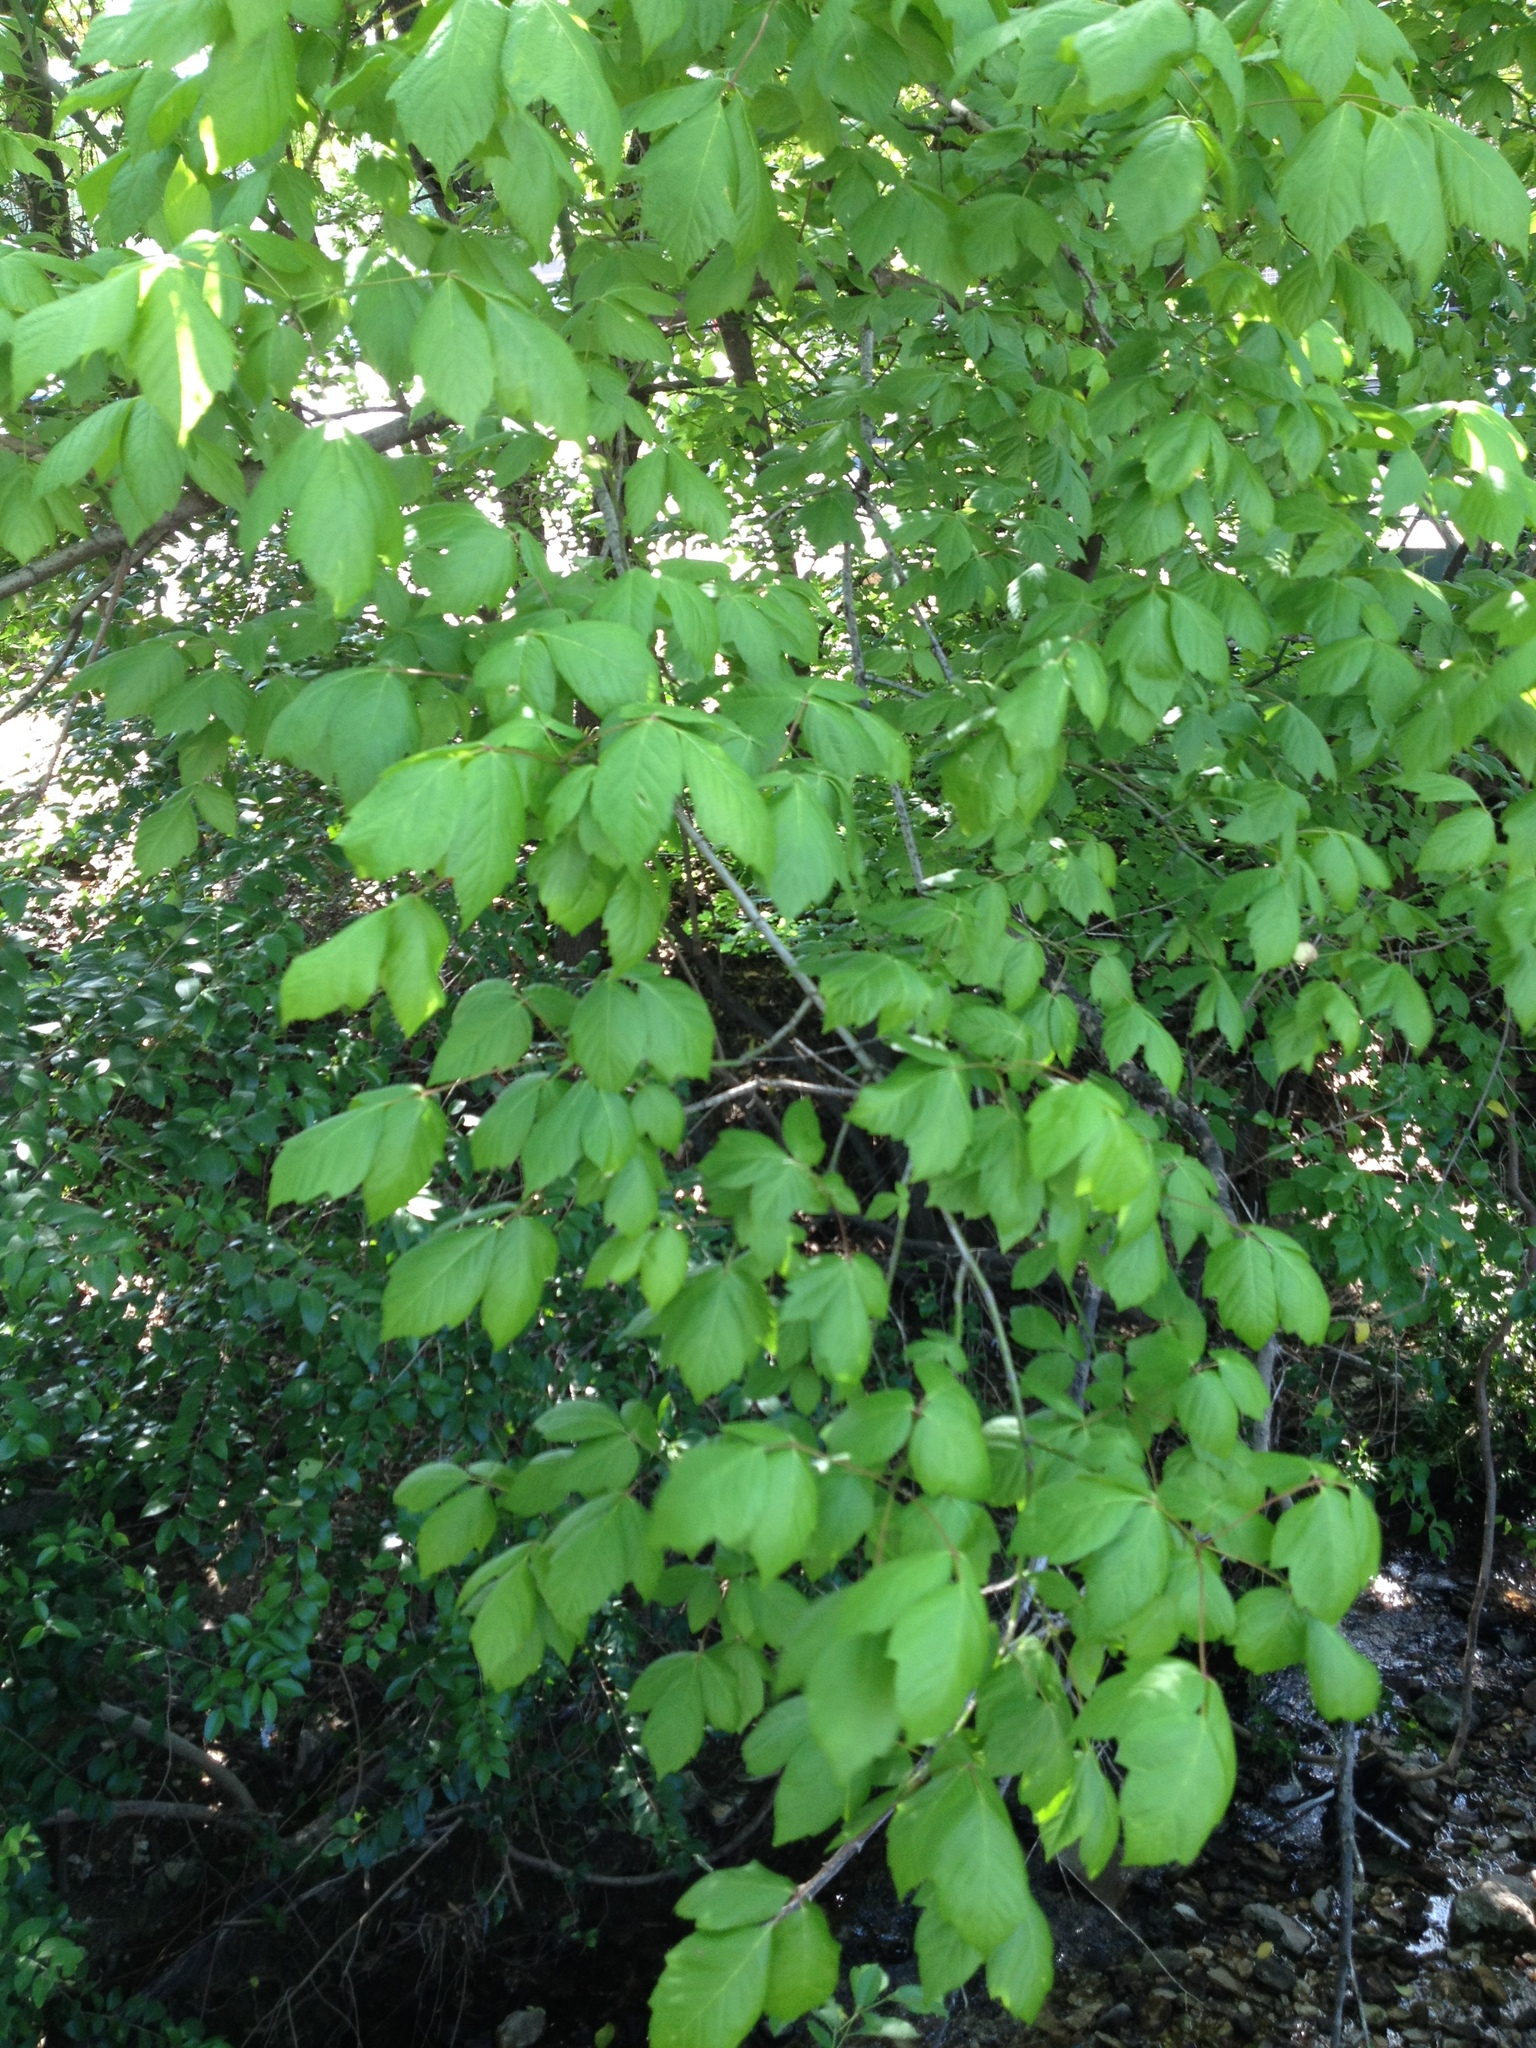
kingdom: Plantae
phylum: Tracheophyta
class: Magnoliopsida
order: Sapindales
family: Sapindaceae
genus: Acer
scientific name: Acer negundo
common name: Ashleaf maple
